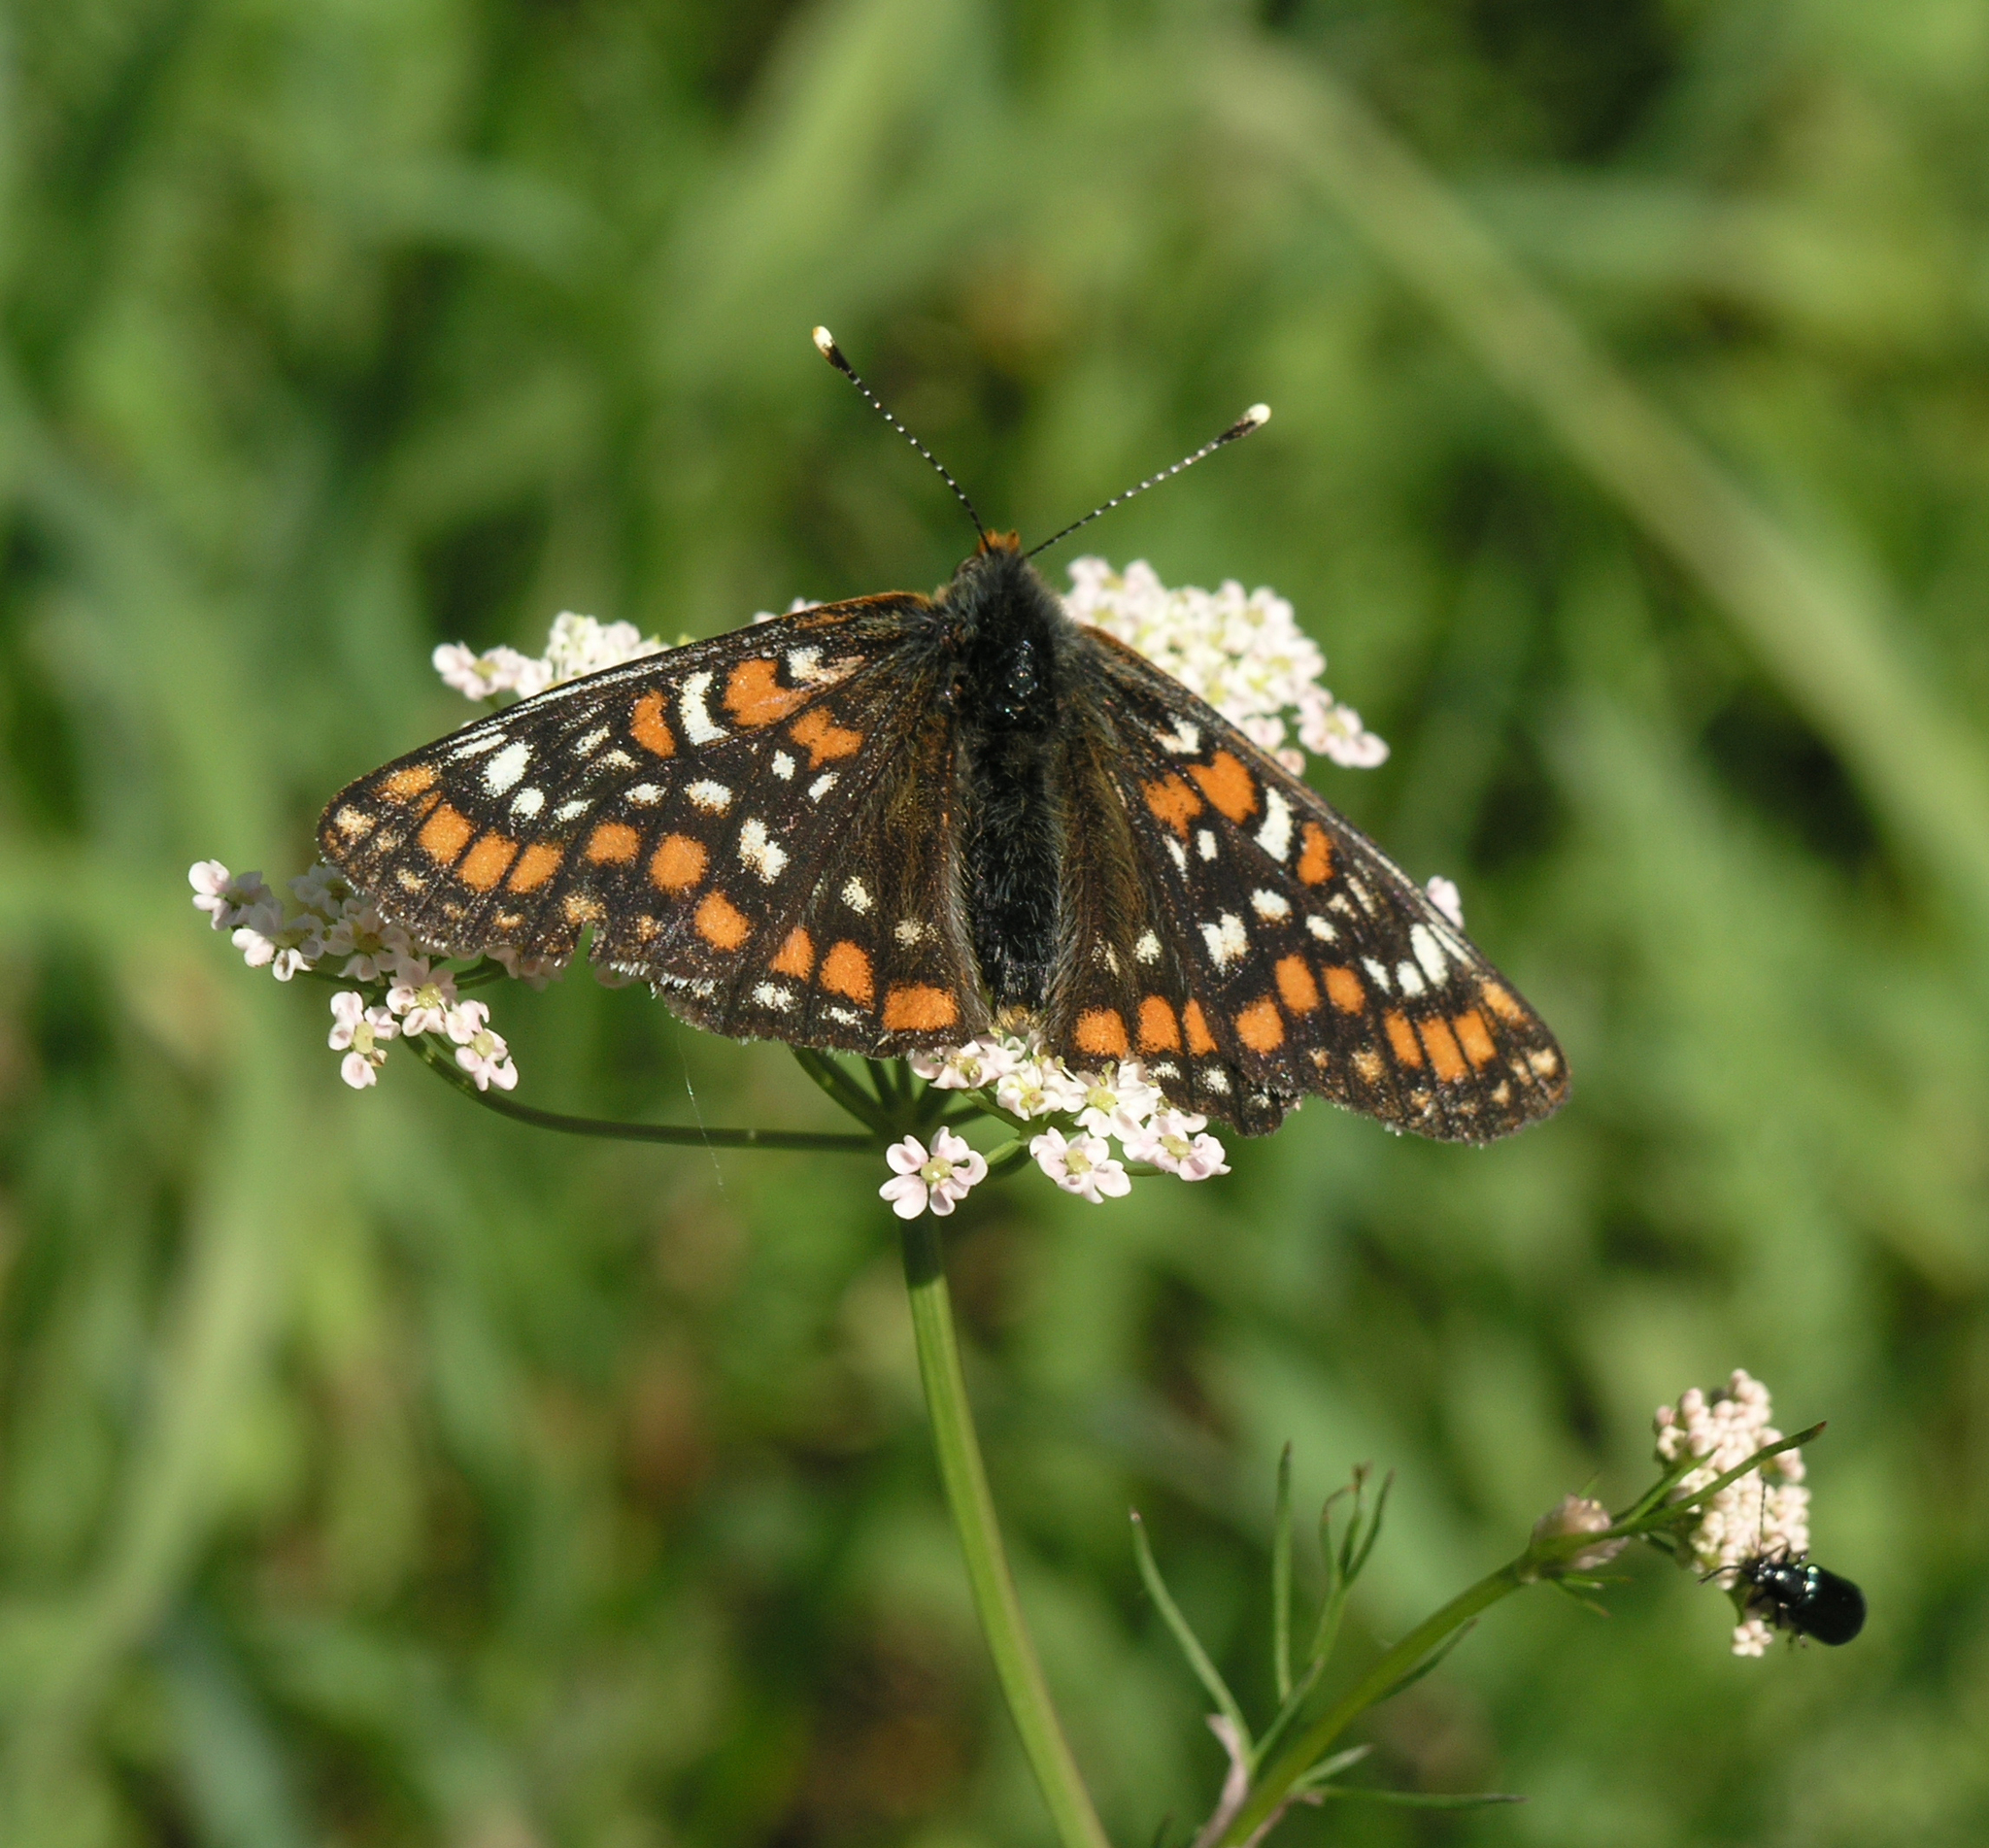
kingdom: Plantae
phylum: Tracheophyta
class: Magnoliopsida
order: Apiales
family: Apiaceae
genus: Carum
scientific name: Carum carvi
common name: Caraway
